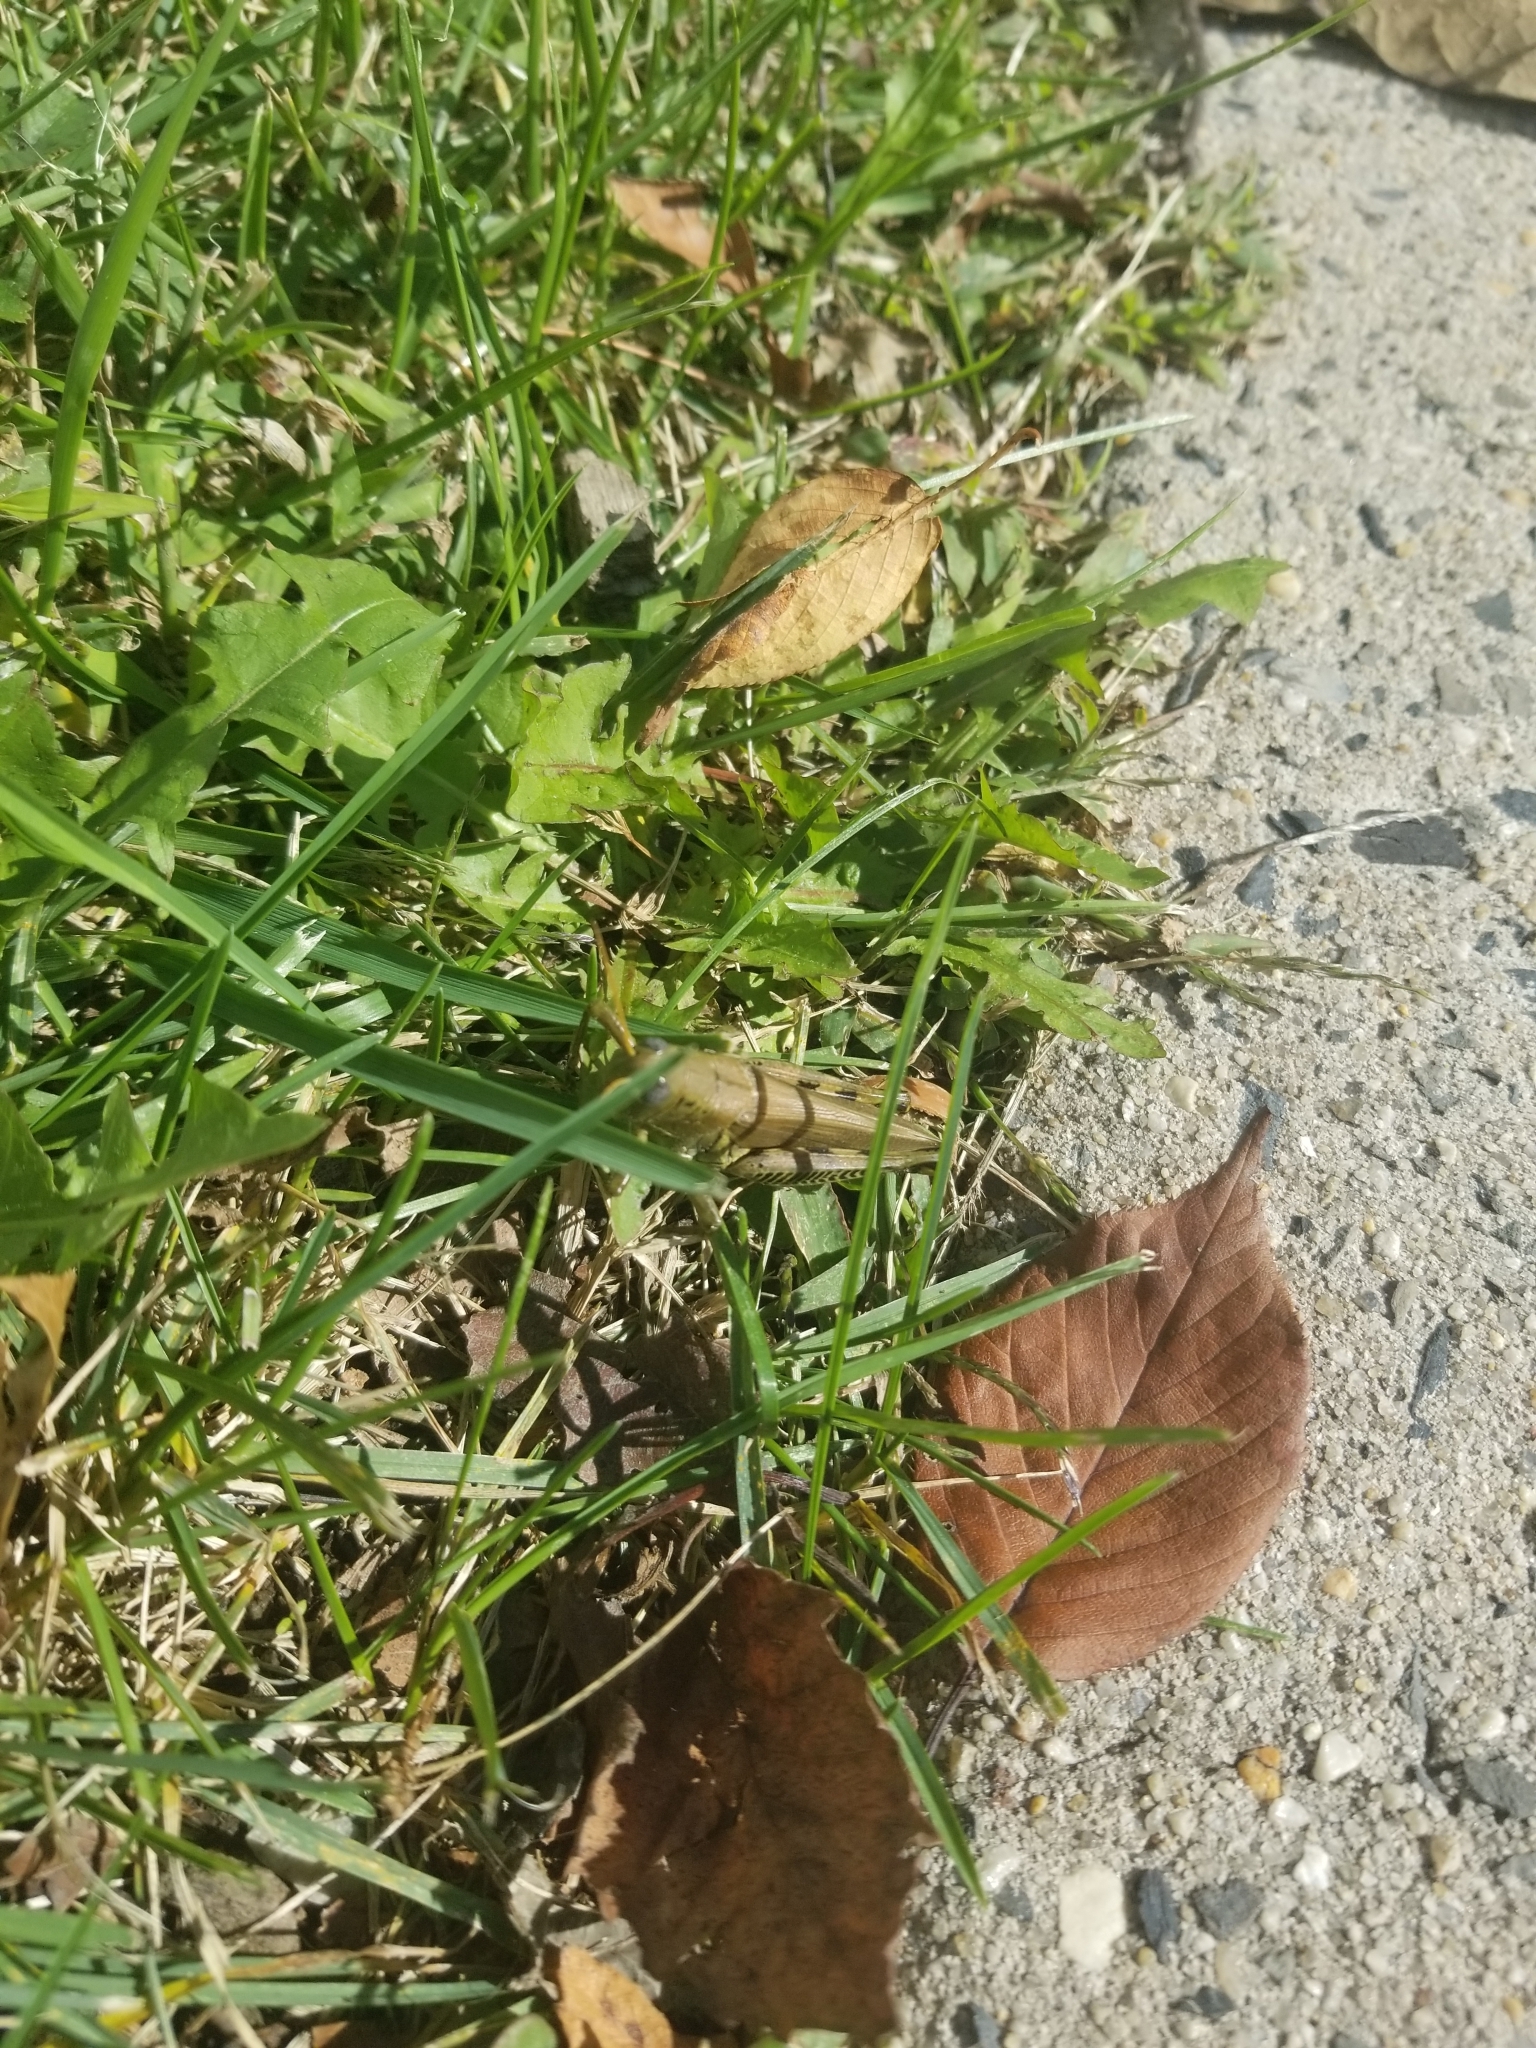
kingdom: Animalia
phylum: Arthropoda
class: Insecta
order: Orthoptera
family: Acrididae
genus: Melanoplus
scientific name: Melanoplus differentialis
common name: Differential grasshopper
